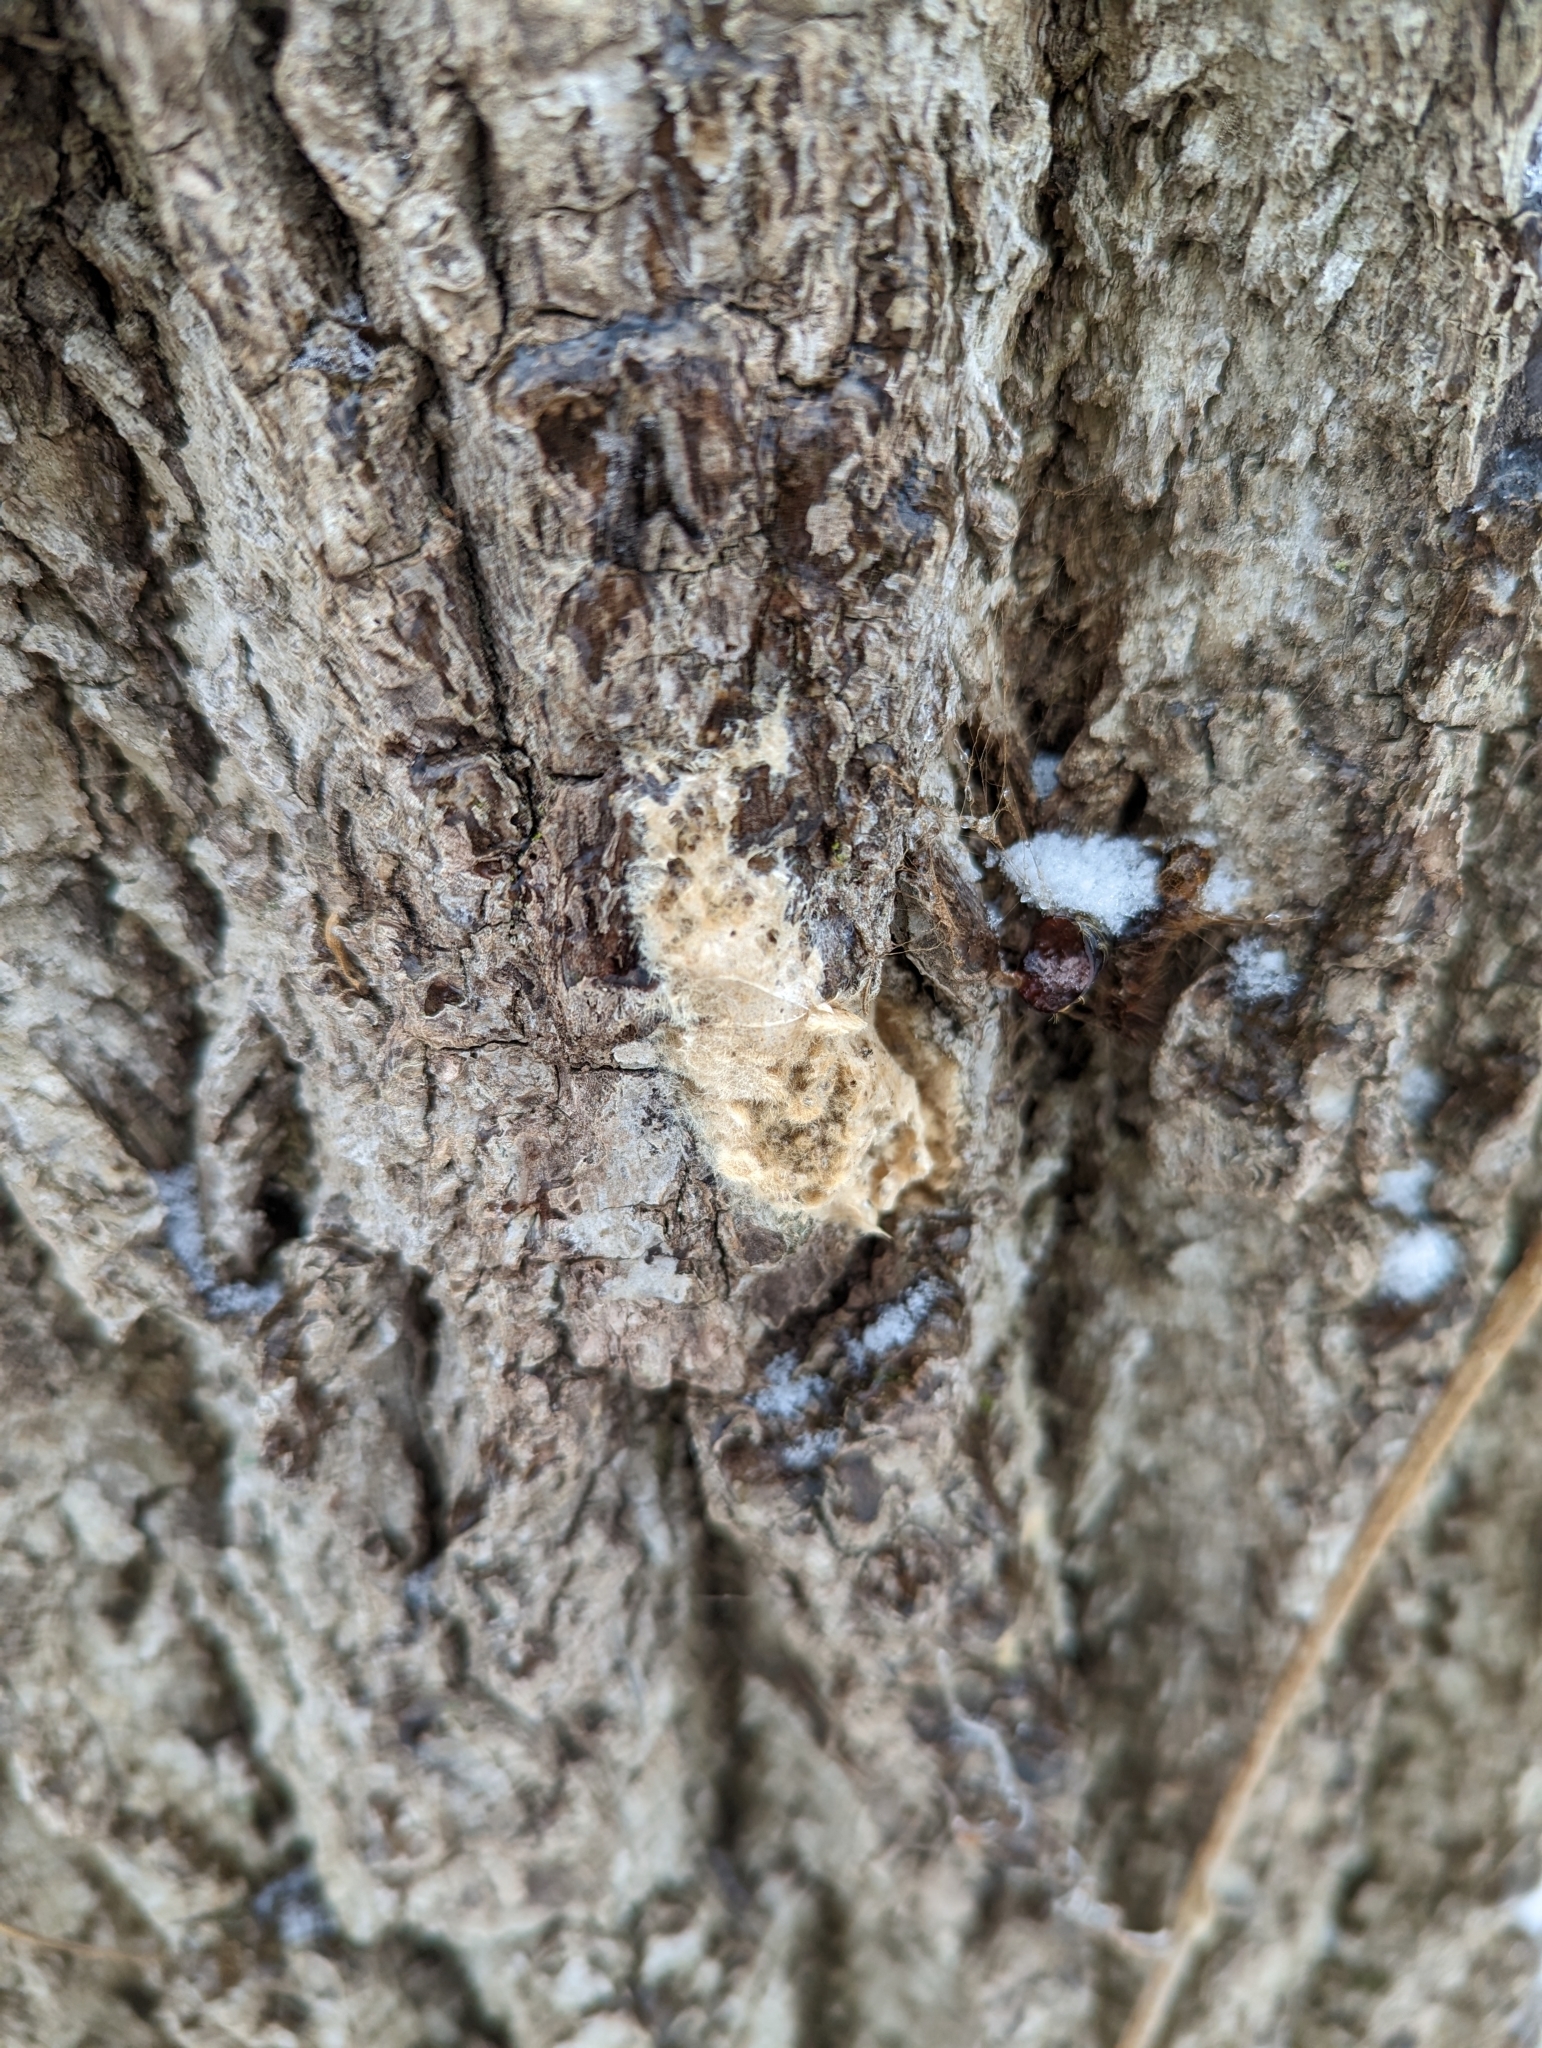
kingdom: Animalia
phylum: Arthropoda
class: Insecta
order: Lepidoptera
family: Erebidae
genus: Lymantria
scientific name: Lymantria dispar
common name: Gypsy moth
